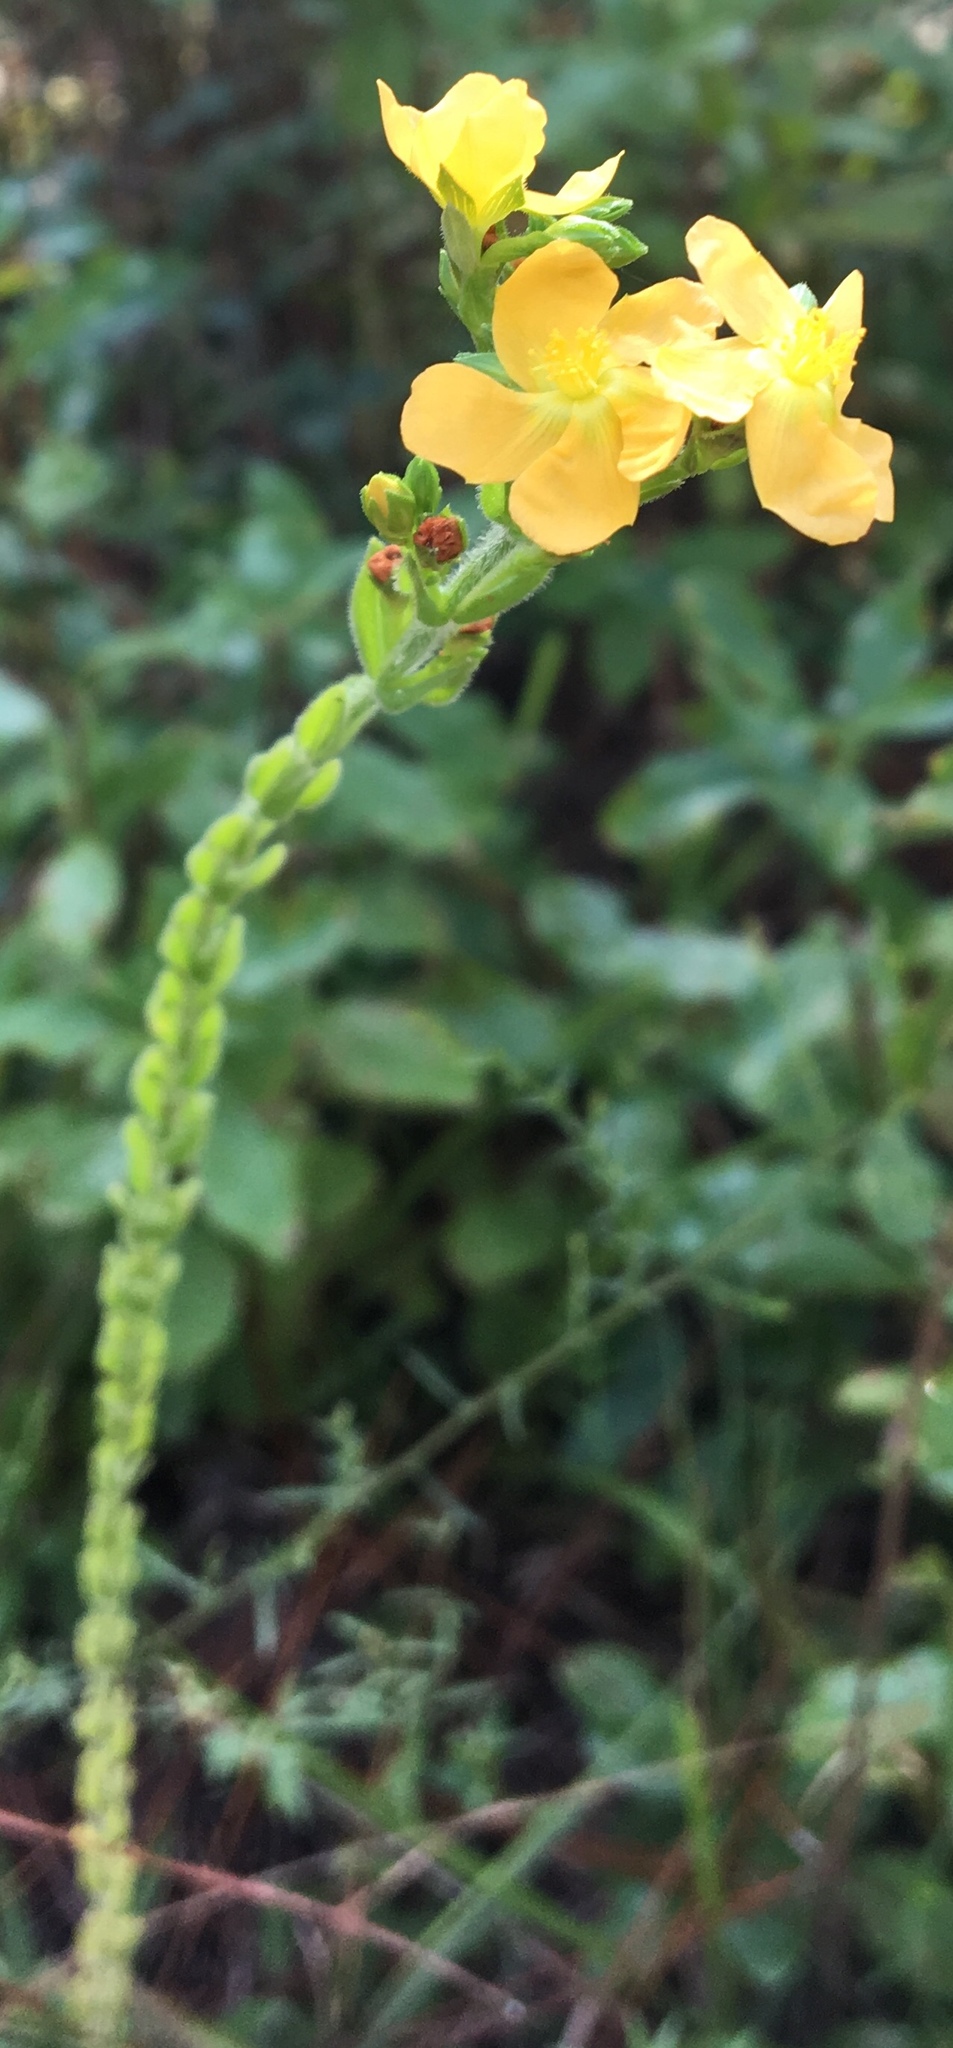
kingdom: Plantae
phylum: Tracheophyta
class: Magnoliopsida
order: Malpighiales
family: Hypericaceae
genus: Hypericum
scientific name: Hypericum setosum
